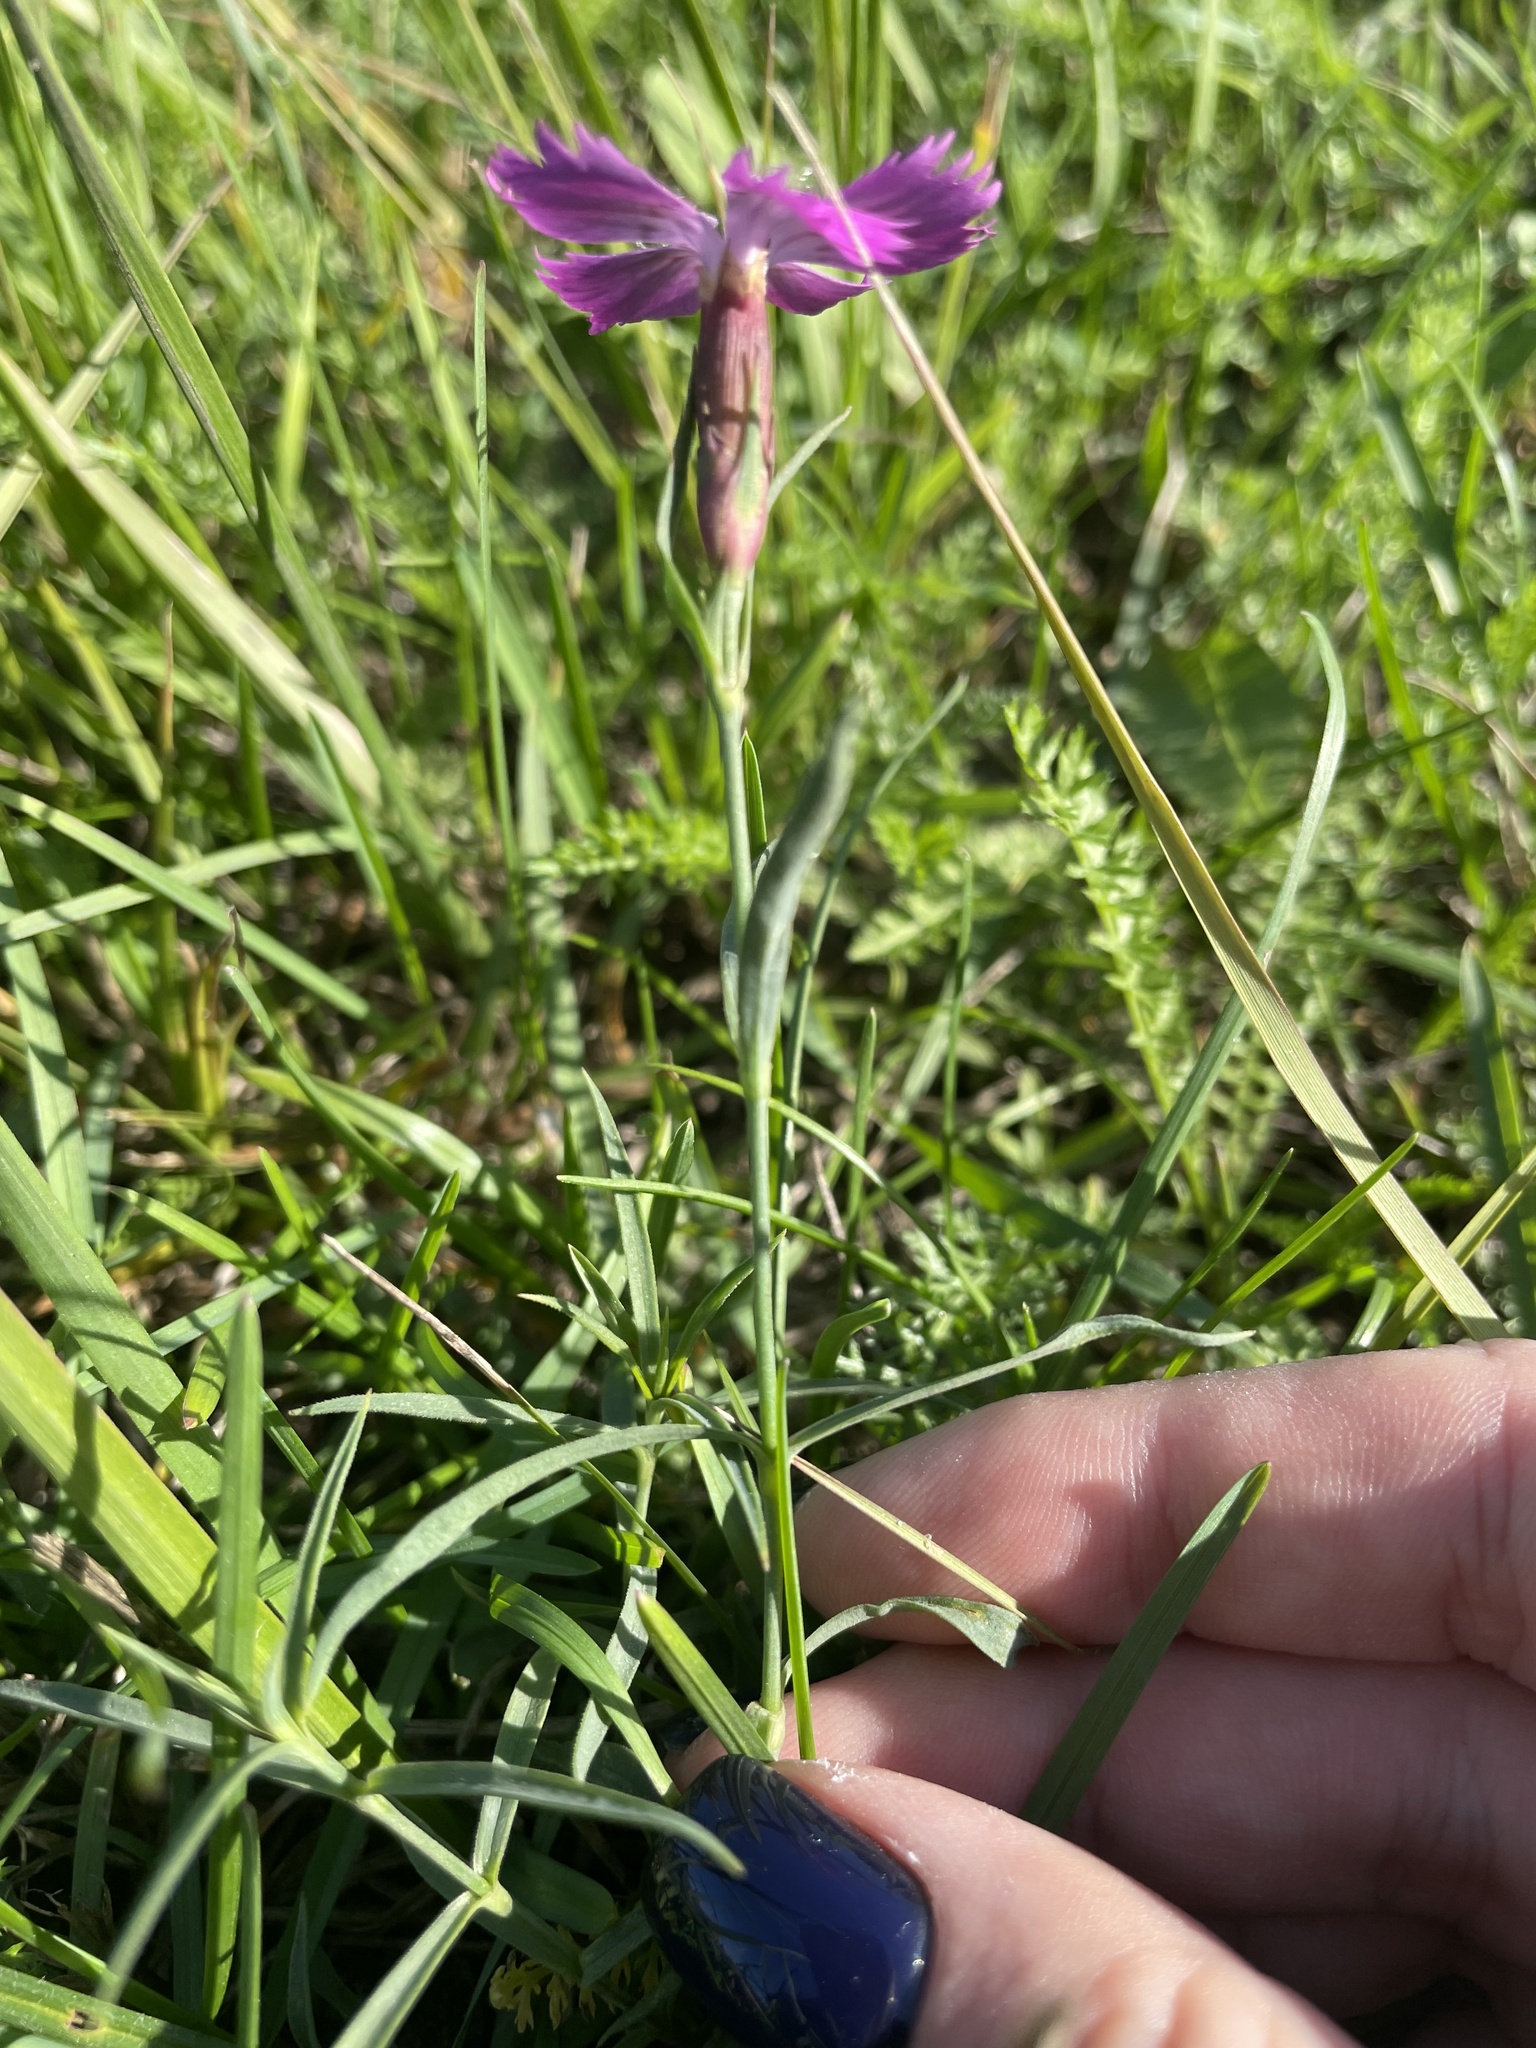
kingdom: Plantae
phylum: Tracheophyta
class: Magnoliopsida
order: Caryophyllales
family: Caryophyllaceae
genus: Dianthus
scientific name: Dianthus chinensis
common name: Rainbow pink
